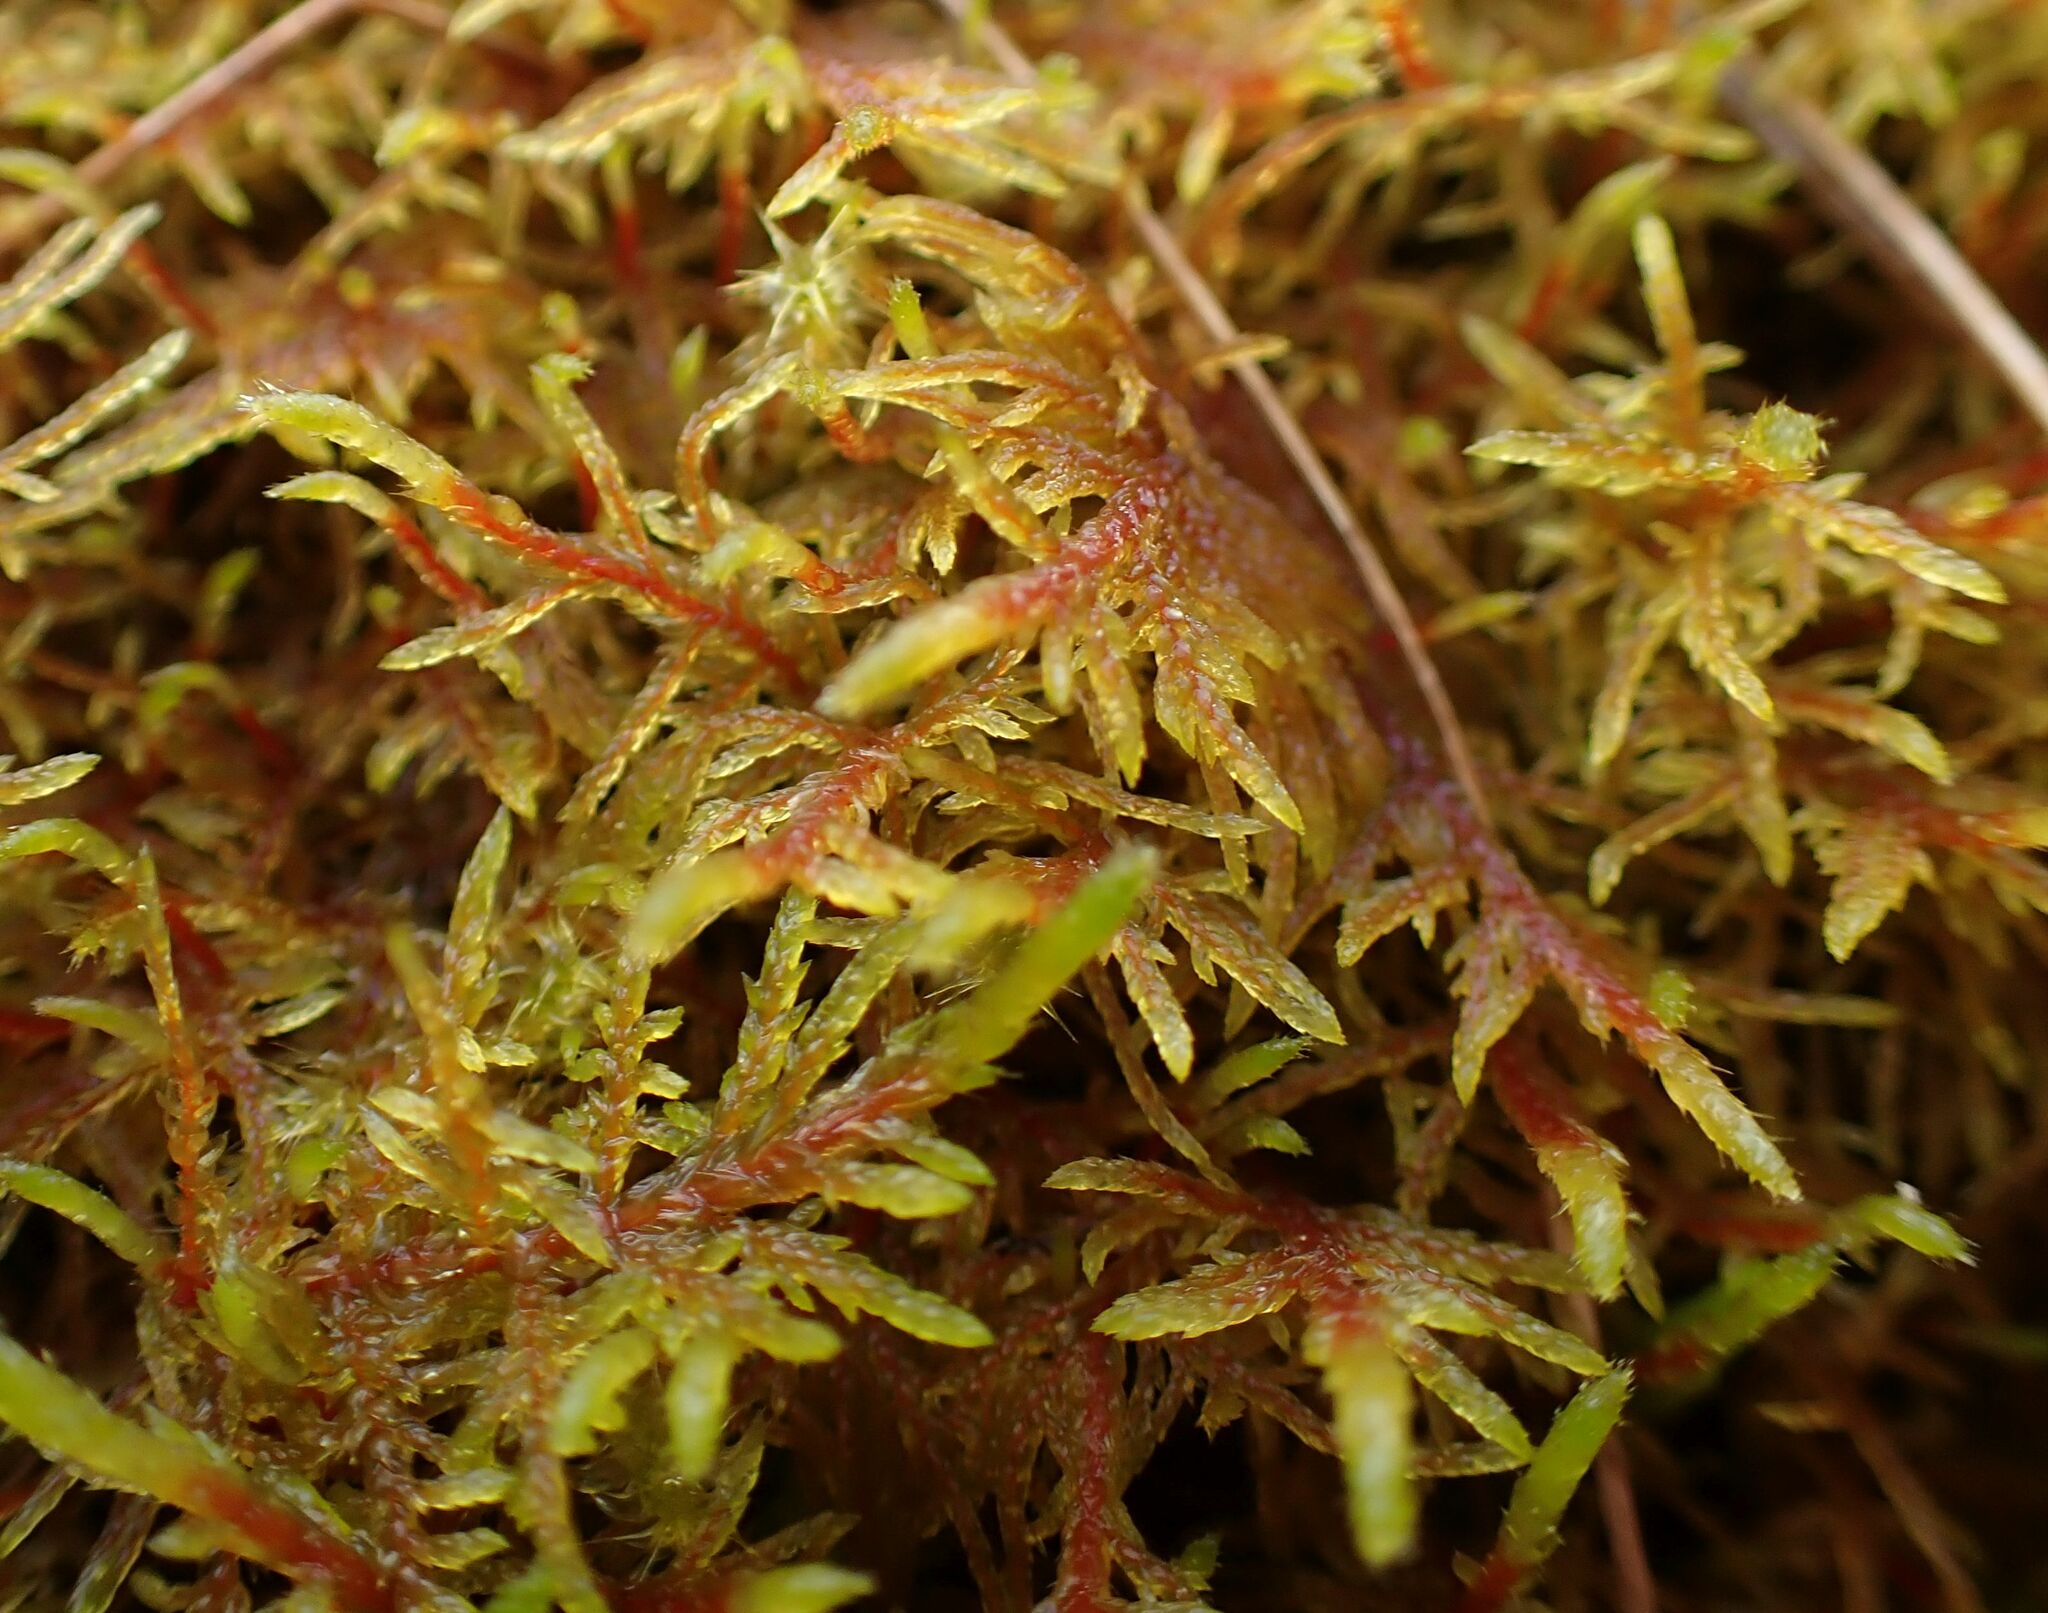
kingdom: Plantae
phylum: Bryophyta
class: Bryopsida
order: Hypnales
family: Hylocomiaceae
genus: Hylocomium
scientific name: Hylocomium splendens
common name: Stairstep moss
